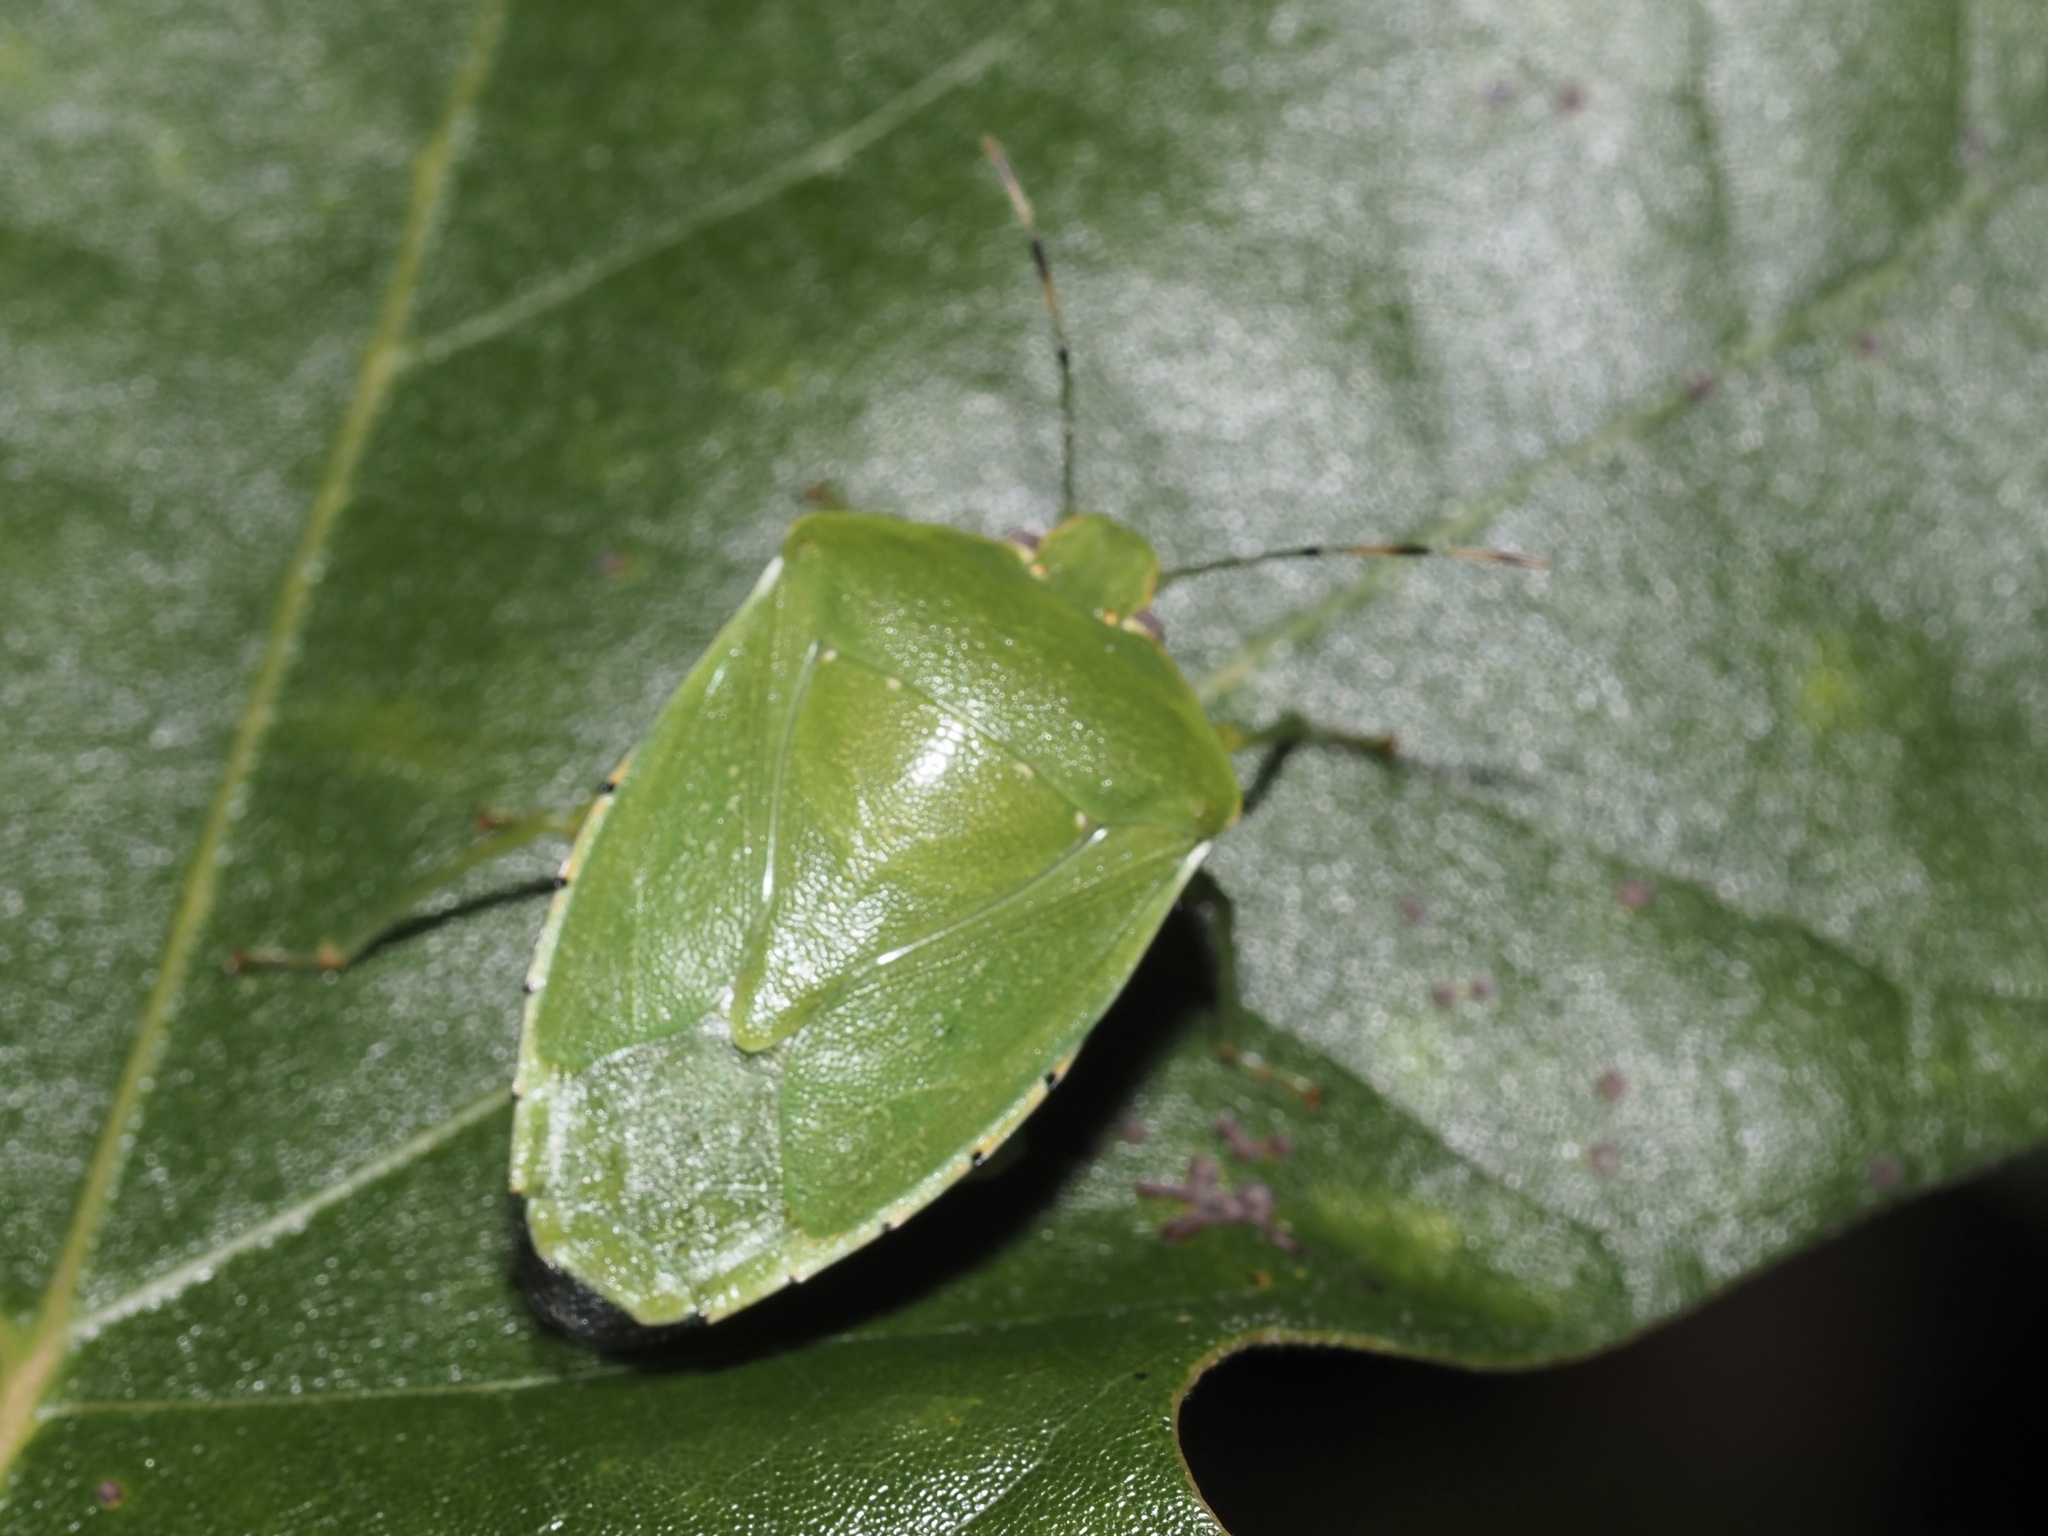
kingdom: Animalia
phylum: Arthropoda
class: Insecta
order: Hemiptera
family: Pentatomidae
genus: Chinavia
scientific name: Chinavia hilaris
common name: Green stink bug
